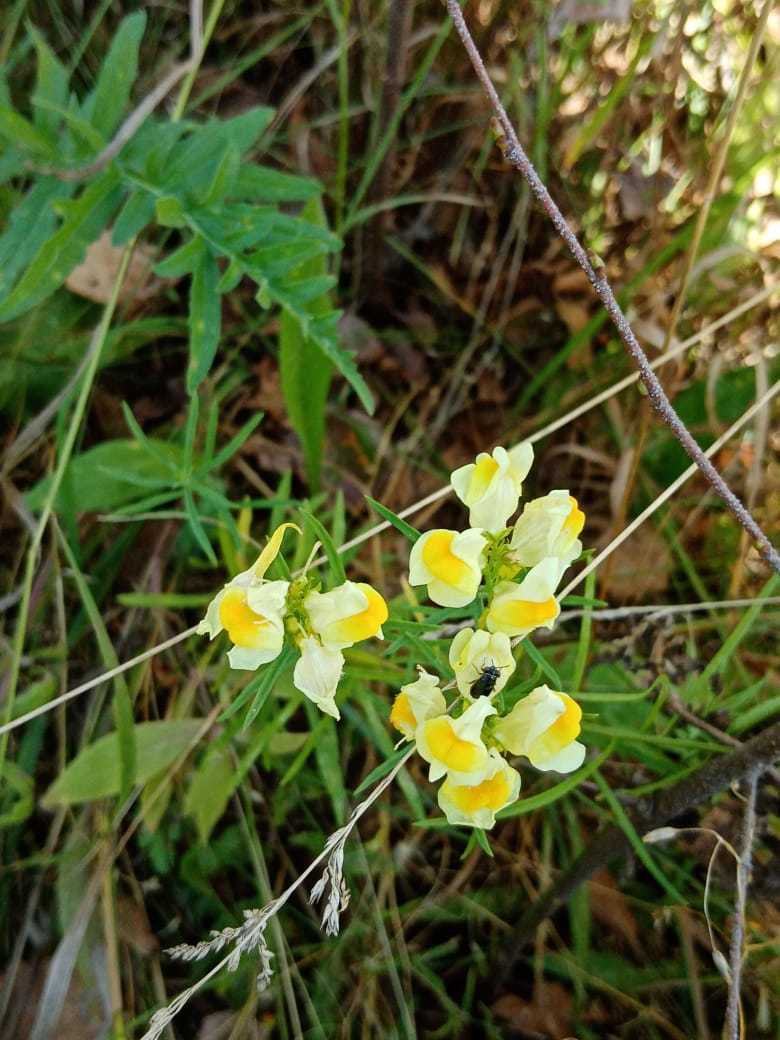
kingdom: Plantae
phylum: Tracheophyta
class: Magnoliopsida
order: Lamiales
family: Plantaginaceae
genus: Linaria
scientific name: Linaria vulgaris
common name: Butter and eggs
